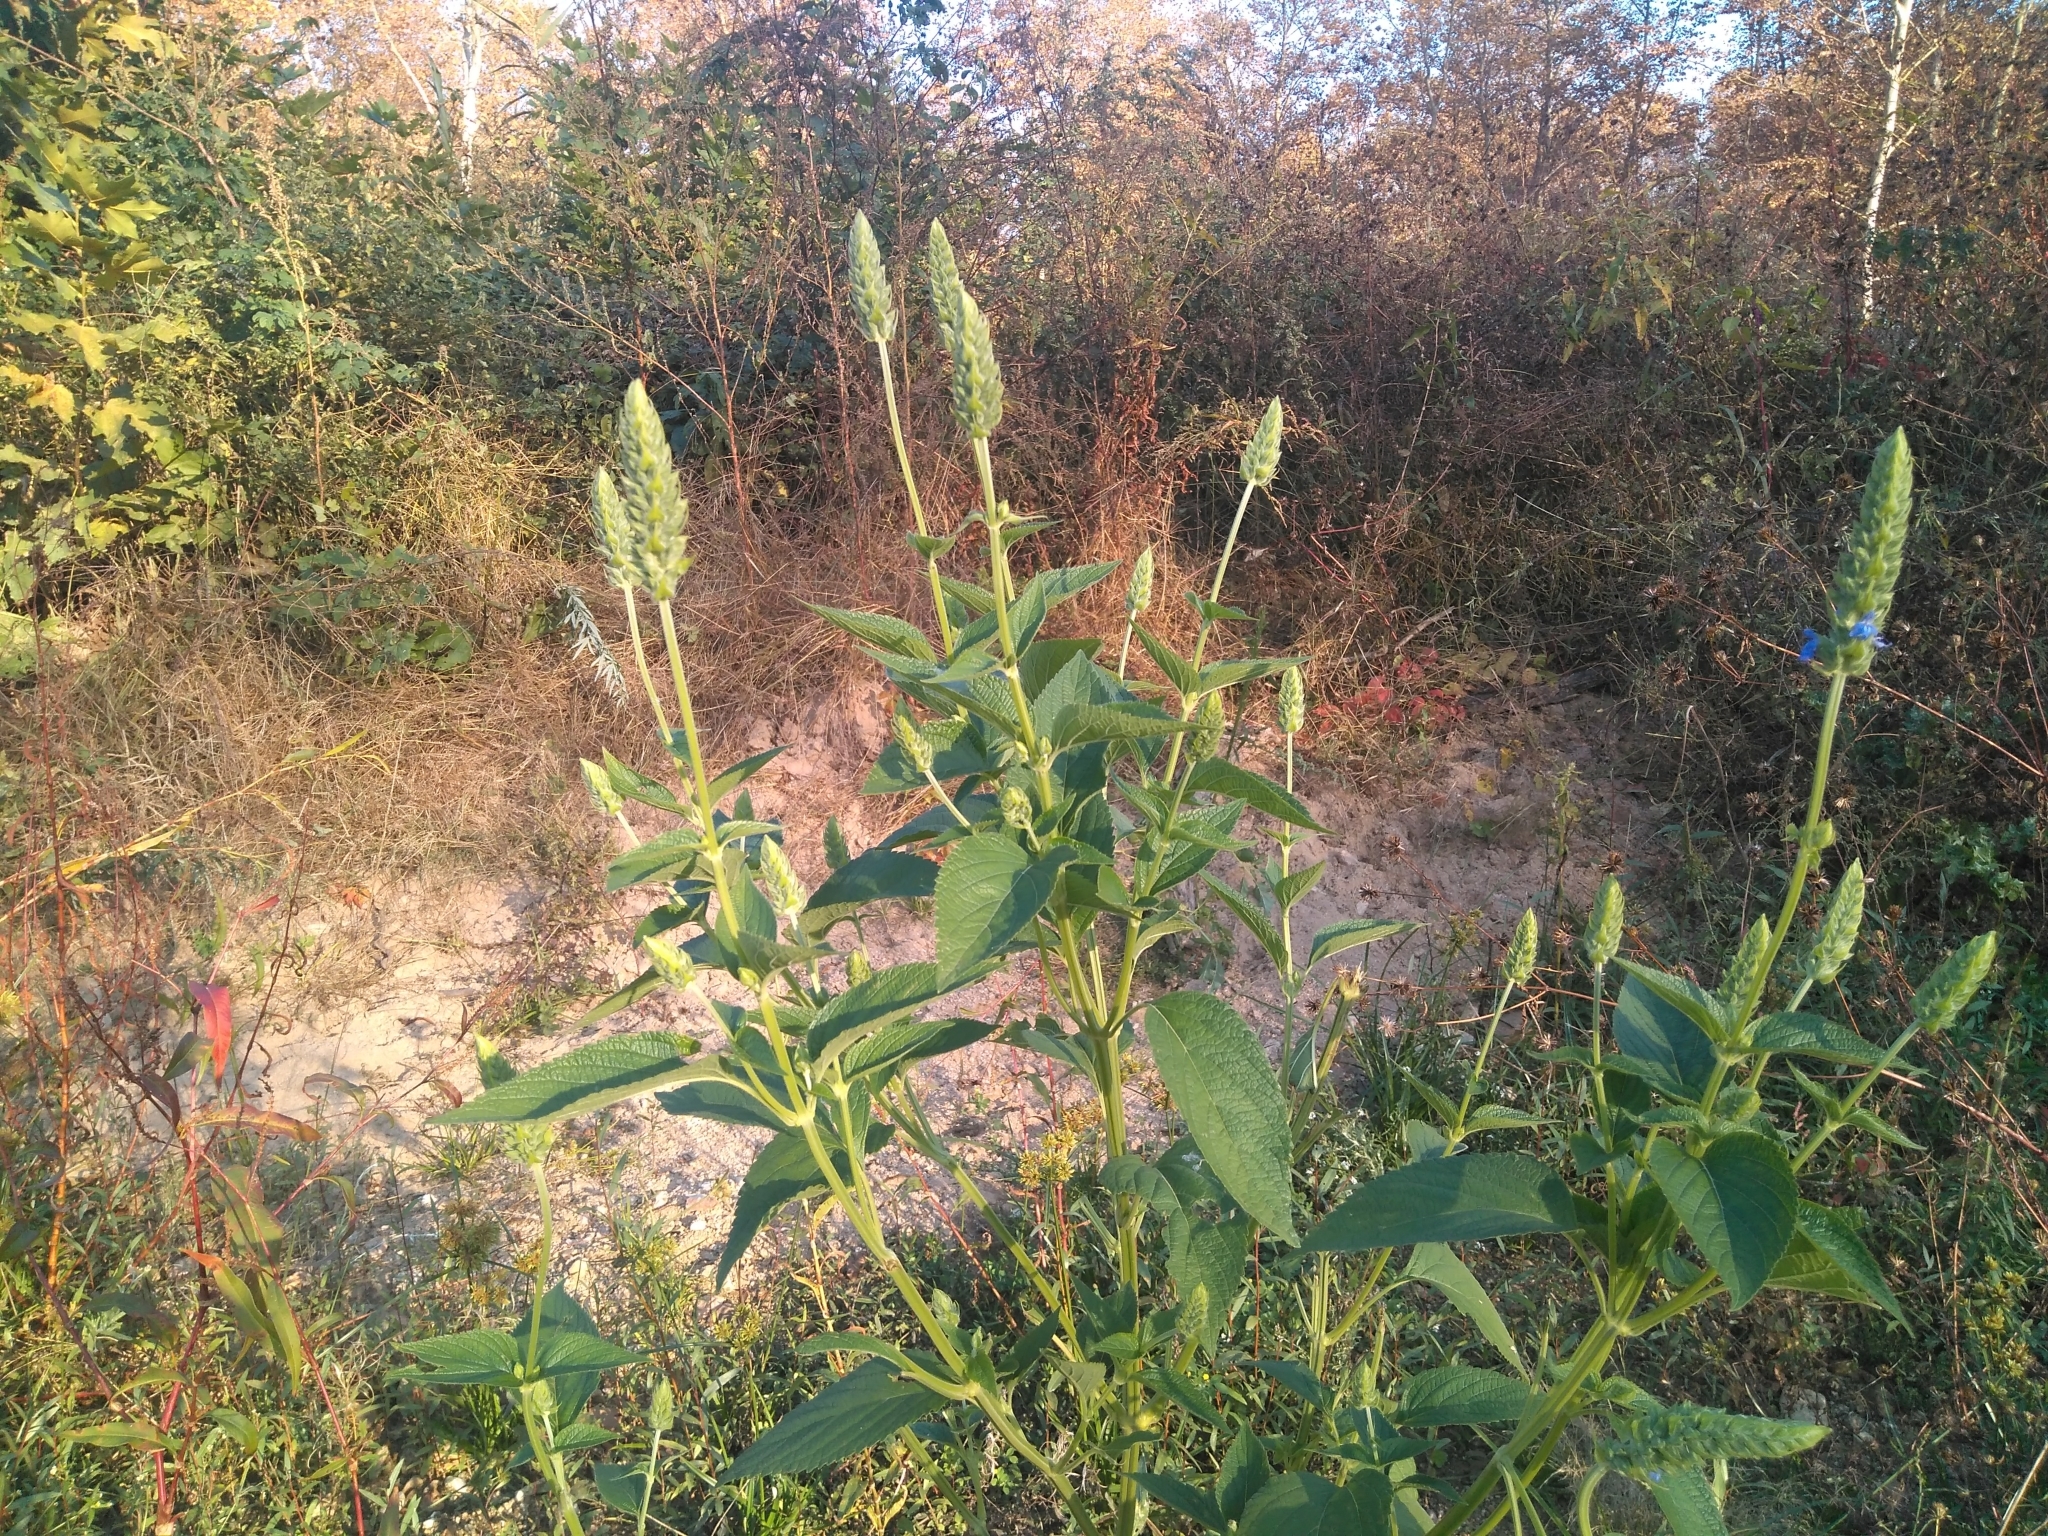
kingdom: Plantae
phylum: Tracheophyta
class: Magnoliopsida
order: Lamiales
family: Lamiaceae
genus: Salvia
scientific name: Salvia hispanica
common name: Chia
